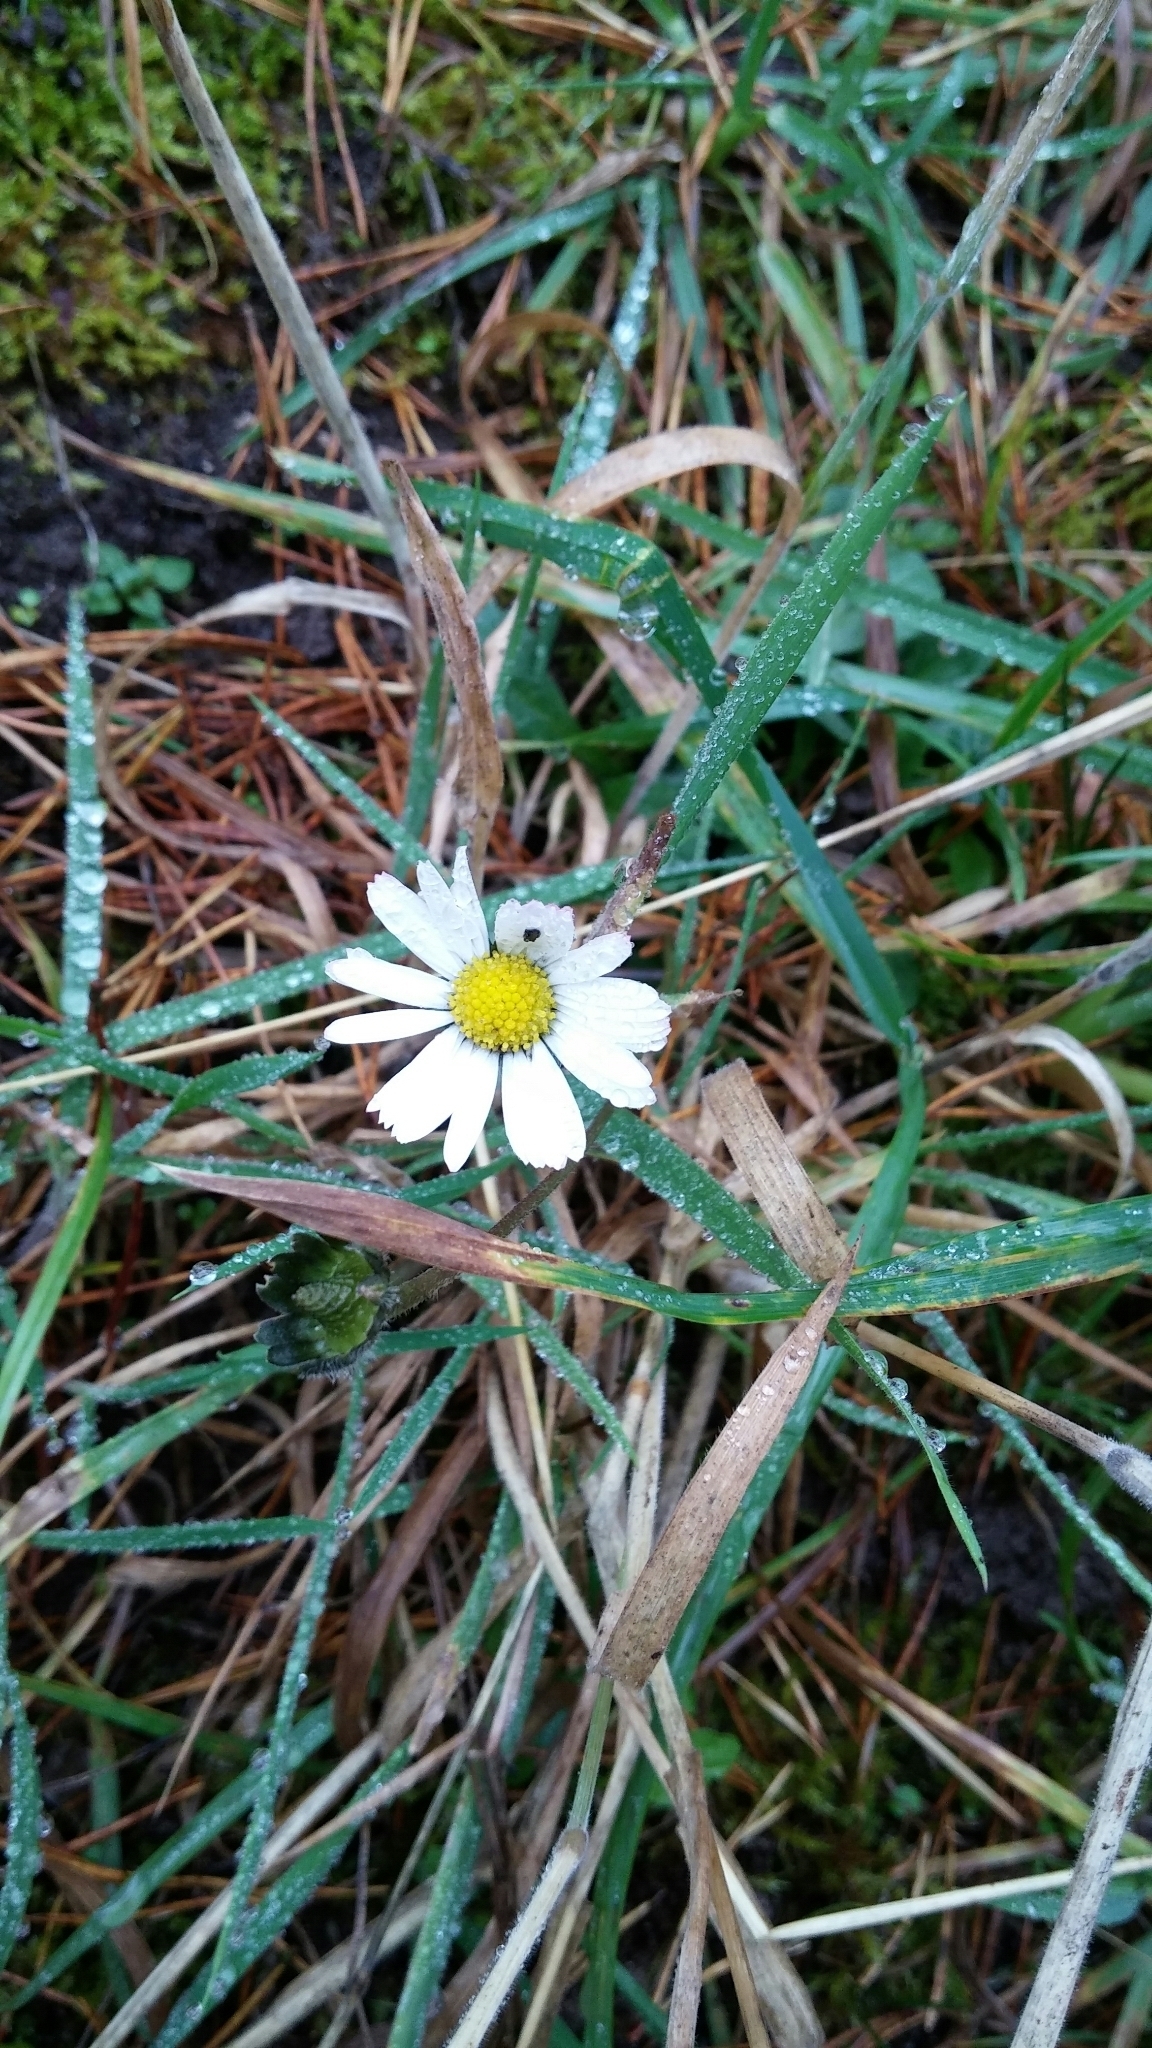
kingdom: Plantae
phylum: Tracheophyta
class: Magnoliopsida
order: Asterales
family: Asteraceae
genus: Bellis
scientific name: Bellis perennis
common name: Lawndaisy
